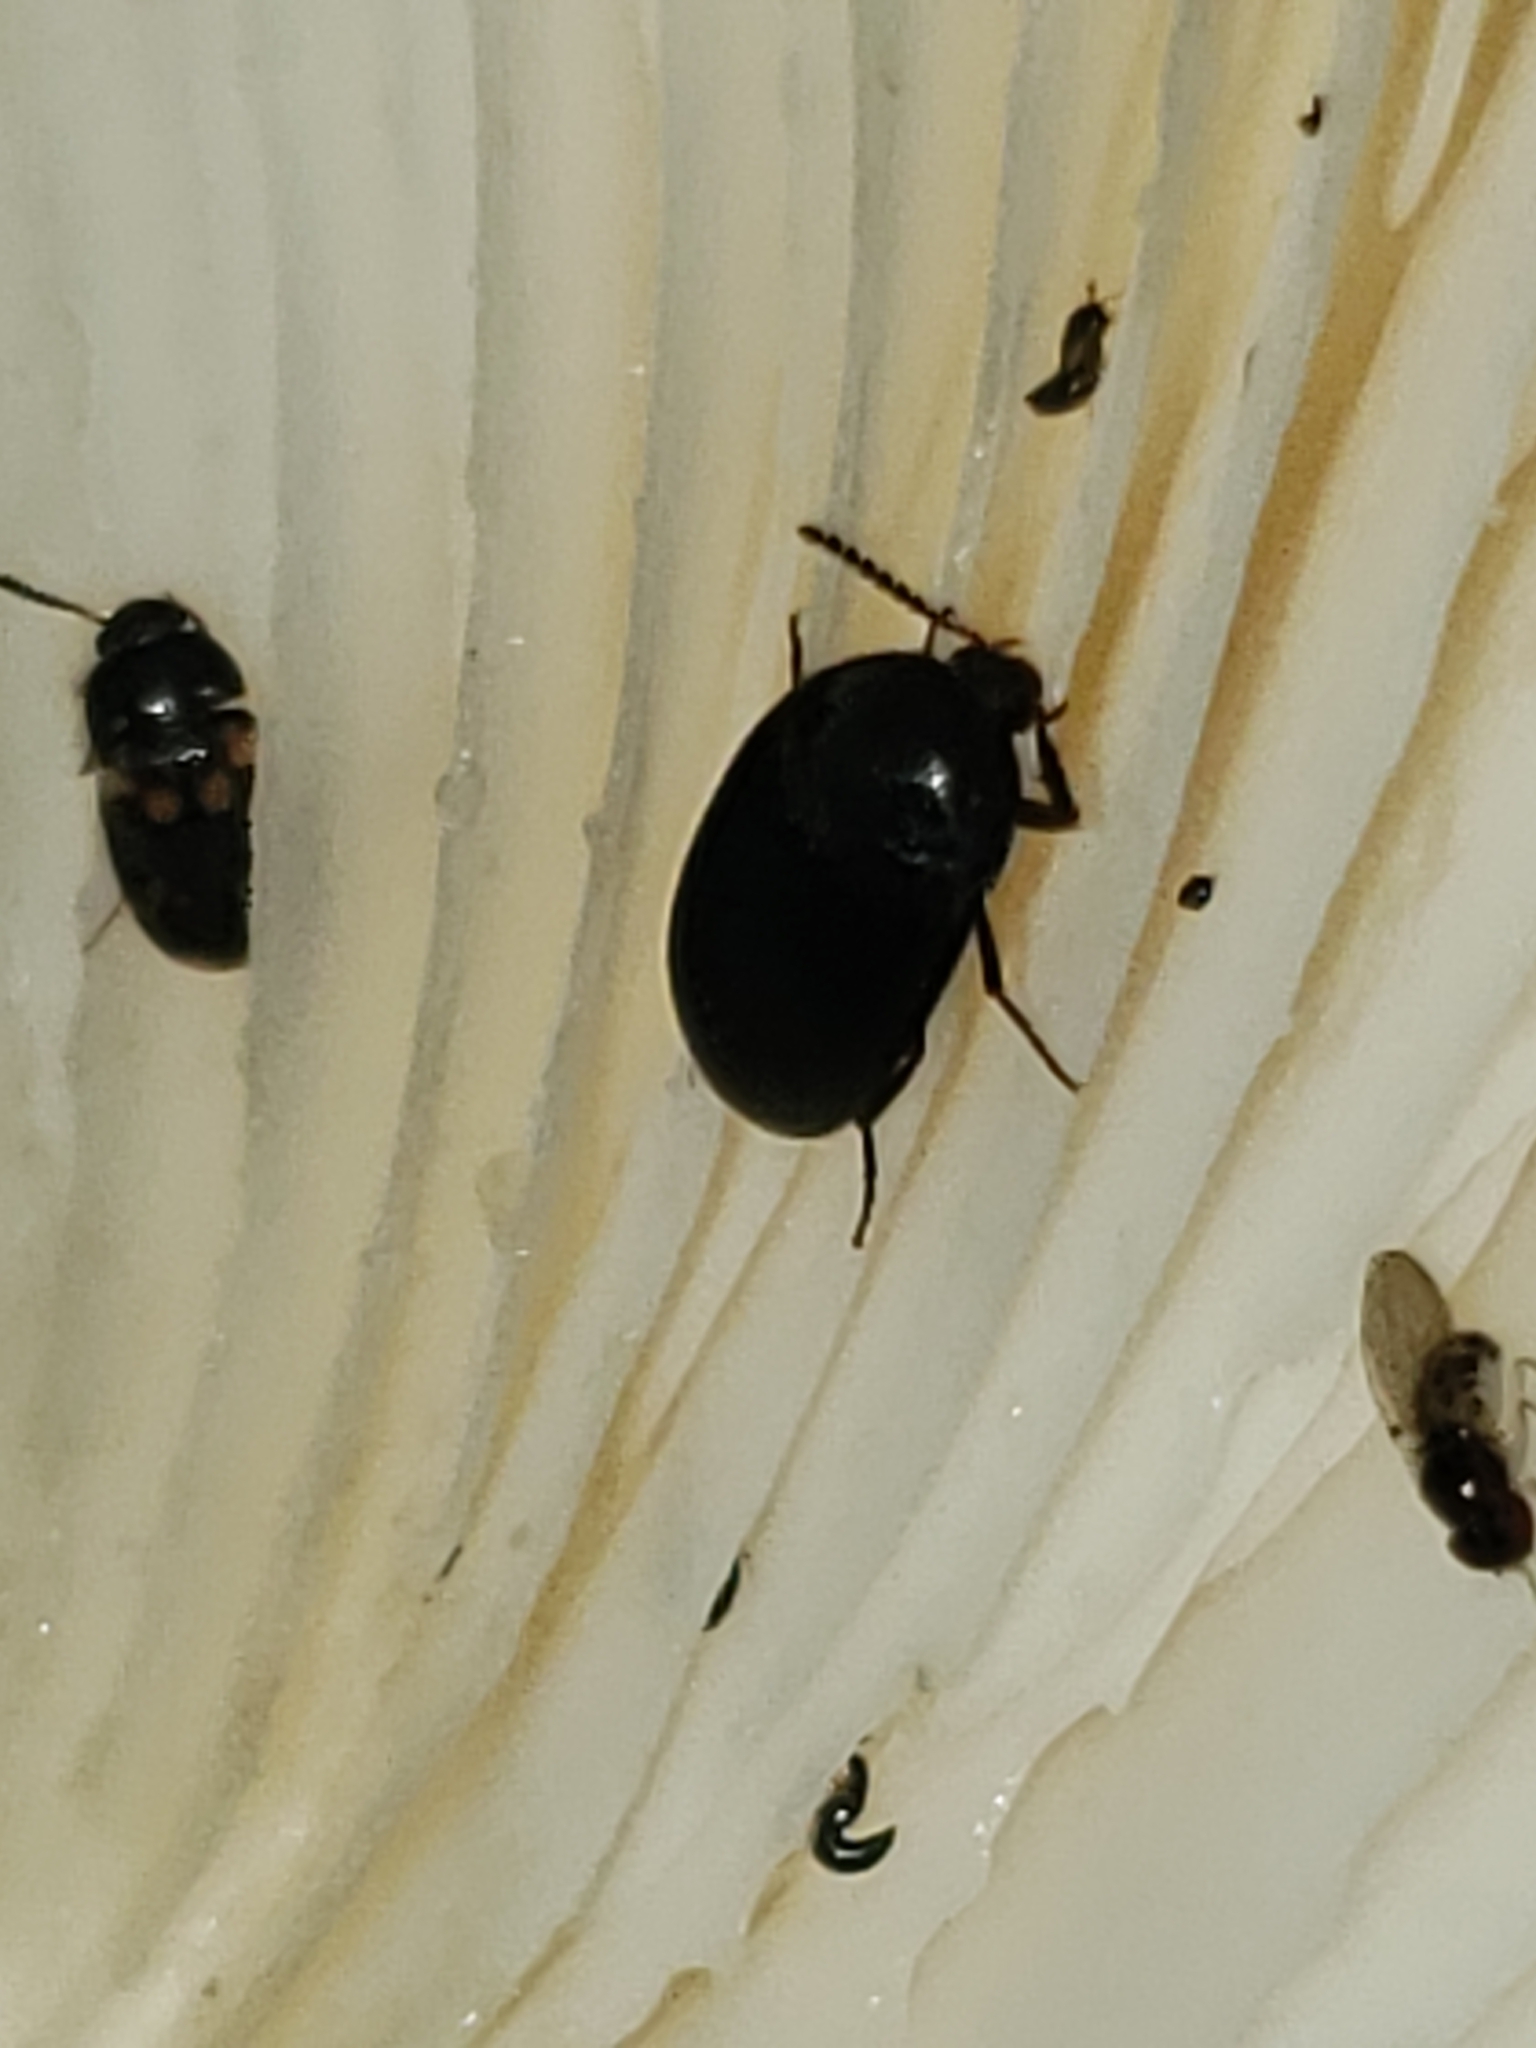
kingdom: Animalia
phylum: Arthropoda
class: Insecta
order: Coleoptera
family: Tetratomidae
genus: Synstrophus
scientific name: Synstrophus repandus
